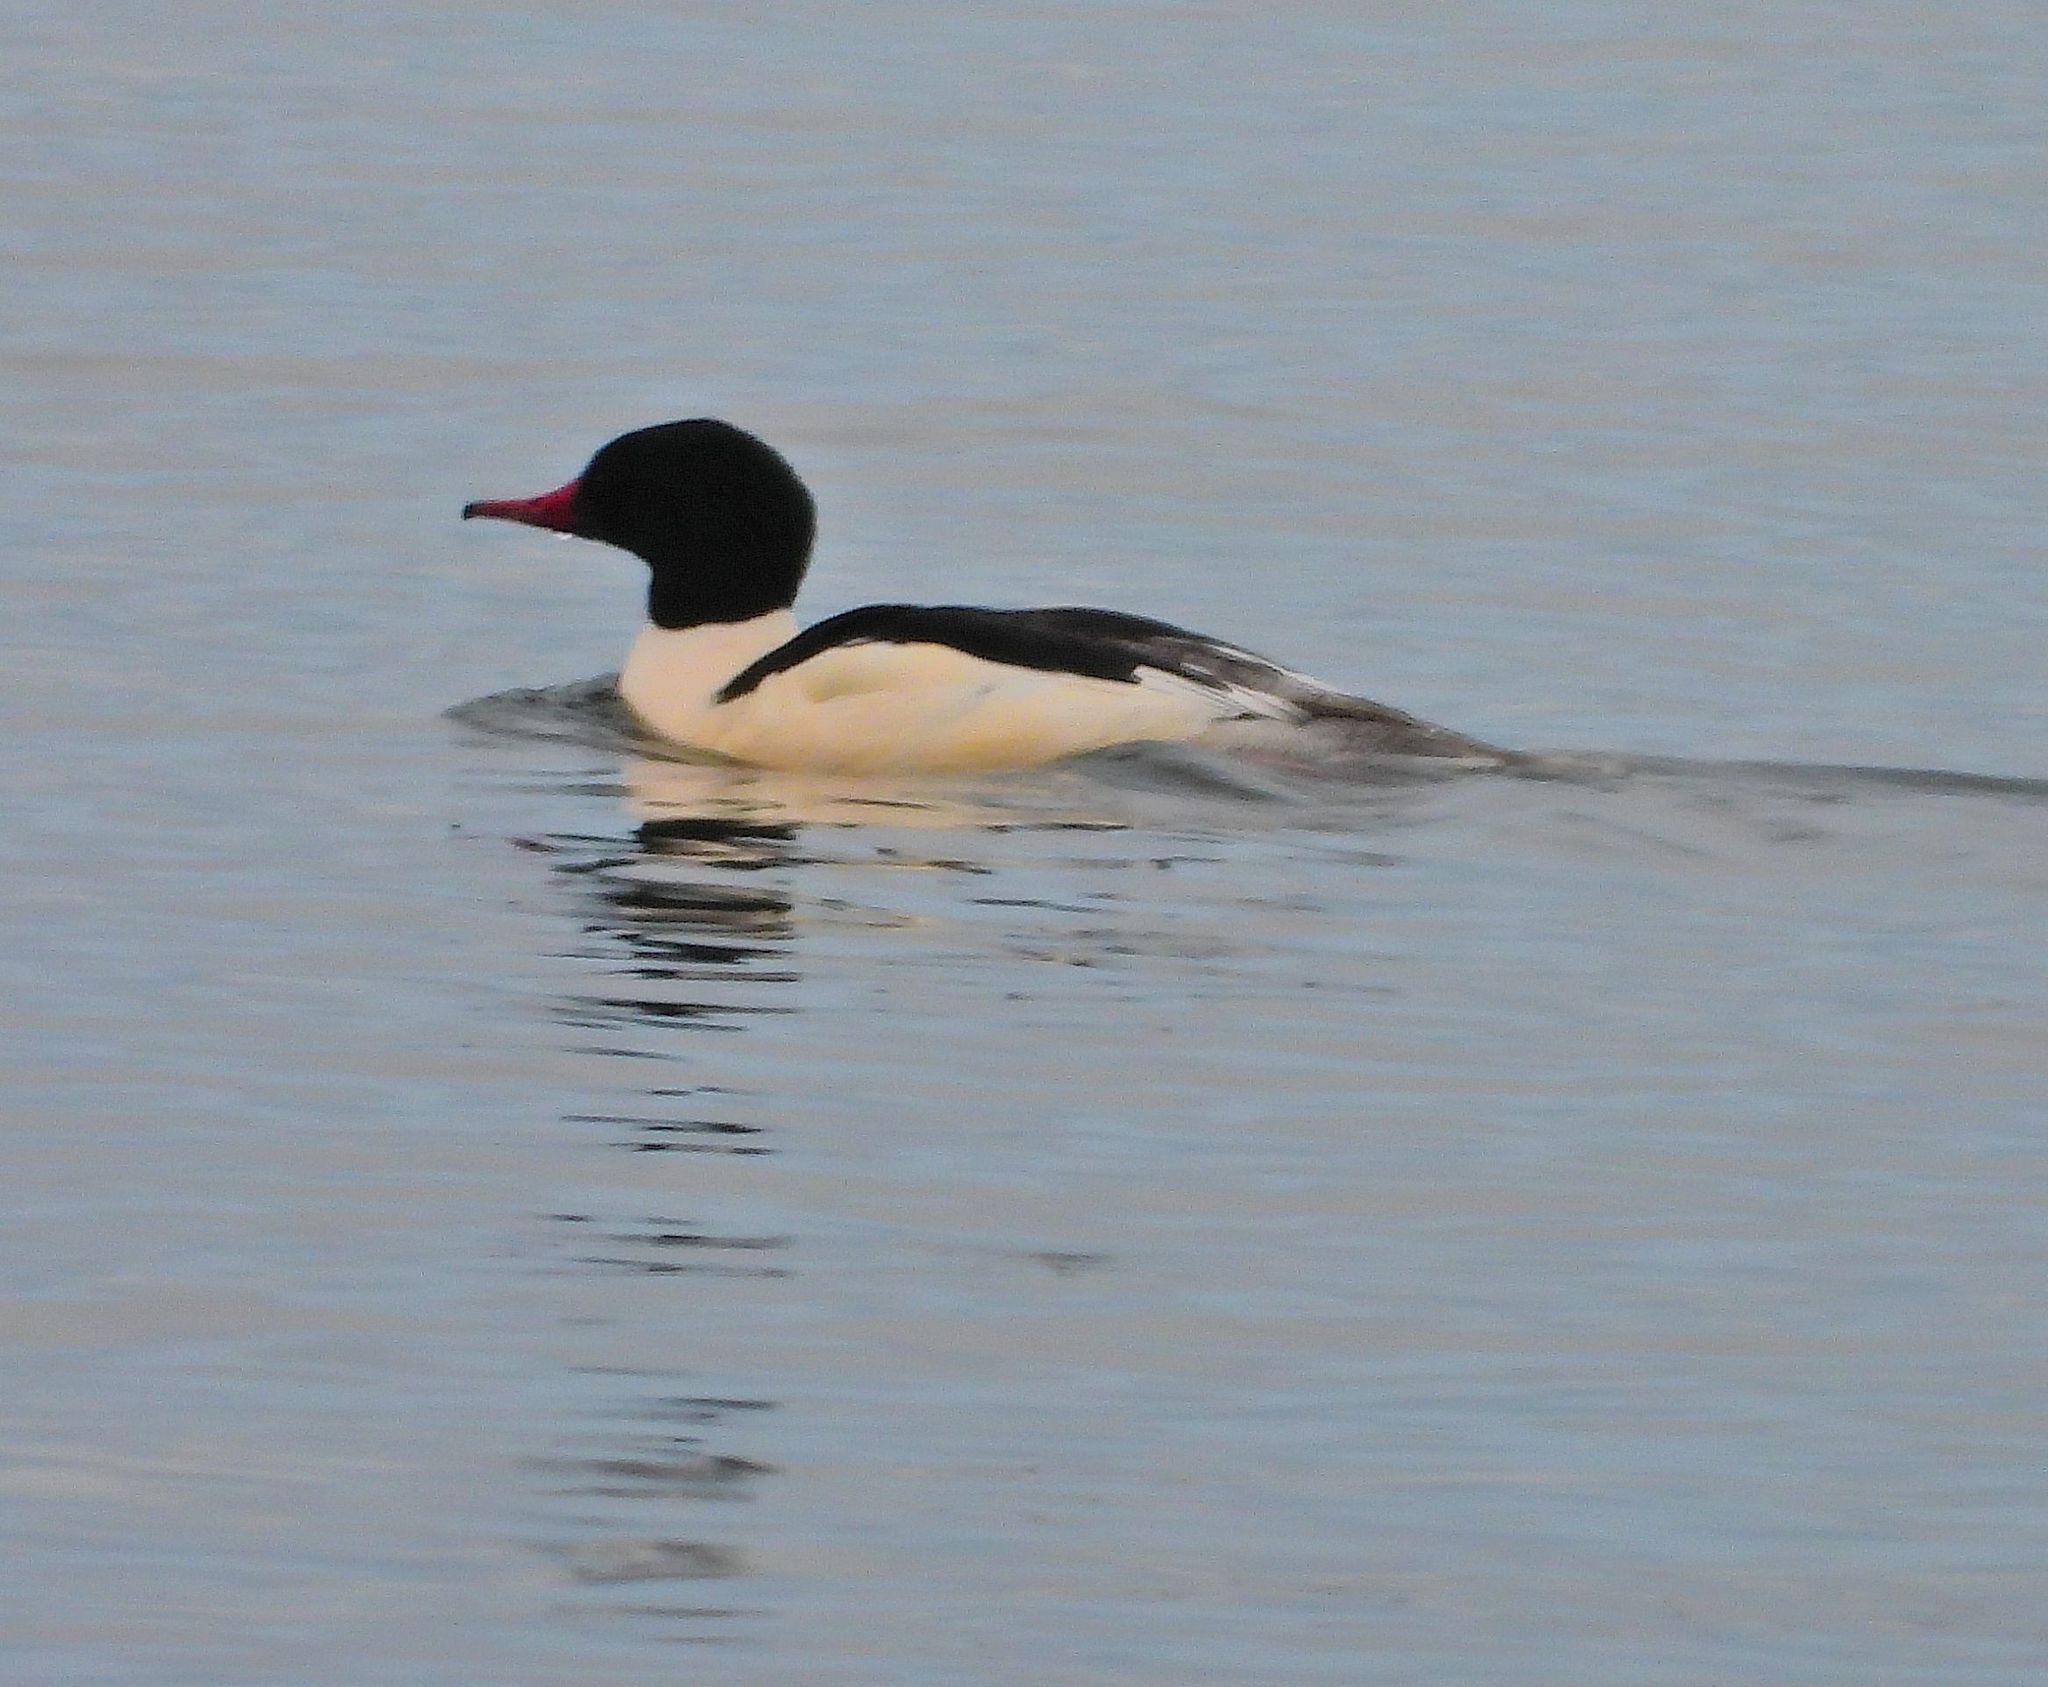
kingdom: Animalia
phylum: Chordata
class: Aves
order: Anseriformes
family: Anatidae
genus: Mergus
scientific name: Mergus merganser
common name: Common merganser
